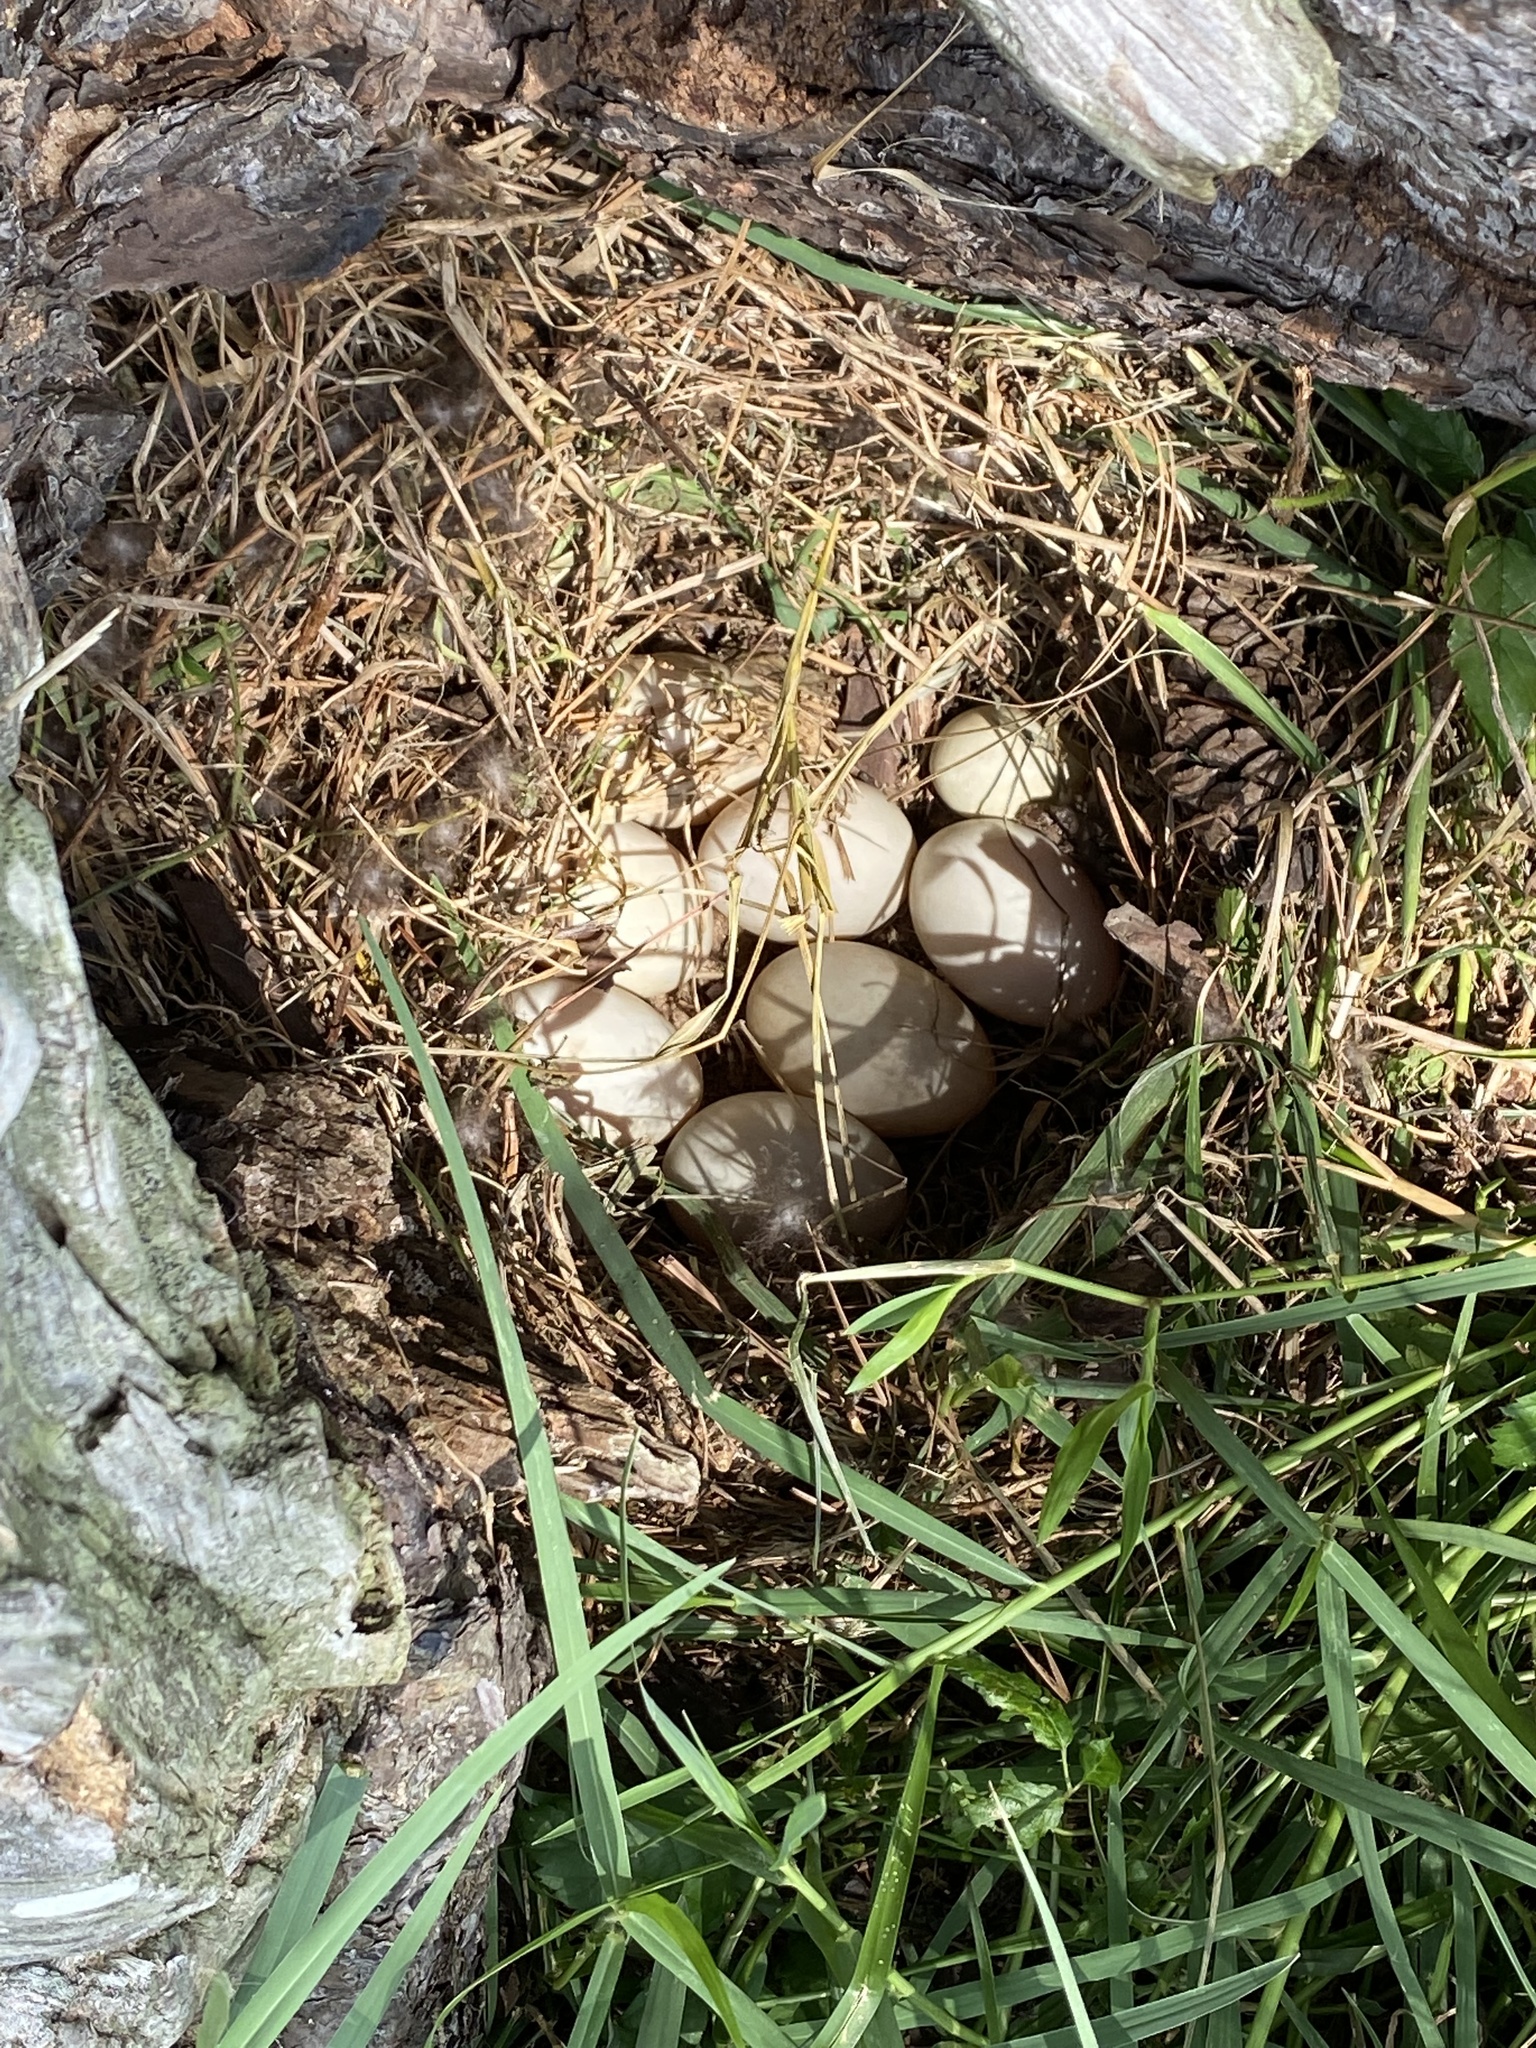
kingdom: Animalia
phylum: Chordata
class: Aves
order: Anseriformes
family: Anatidae
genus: Anas
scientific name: Anas platyrhynchos
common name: Mallard
